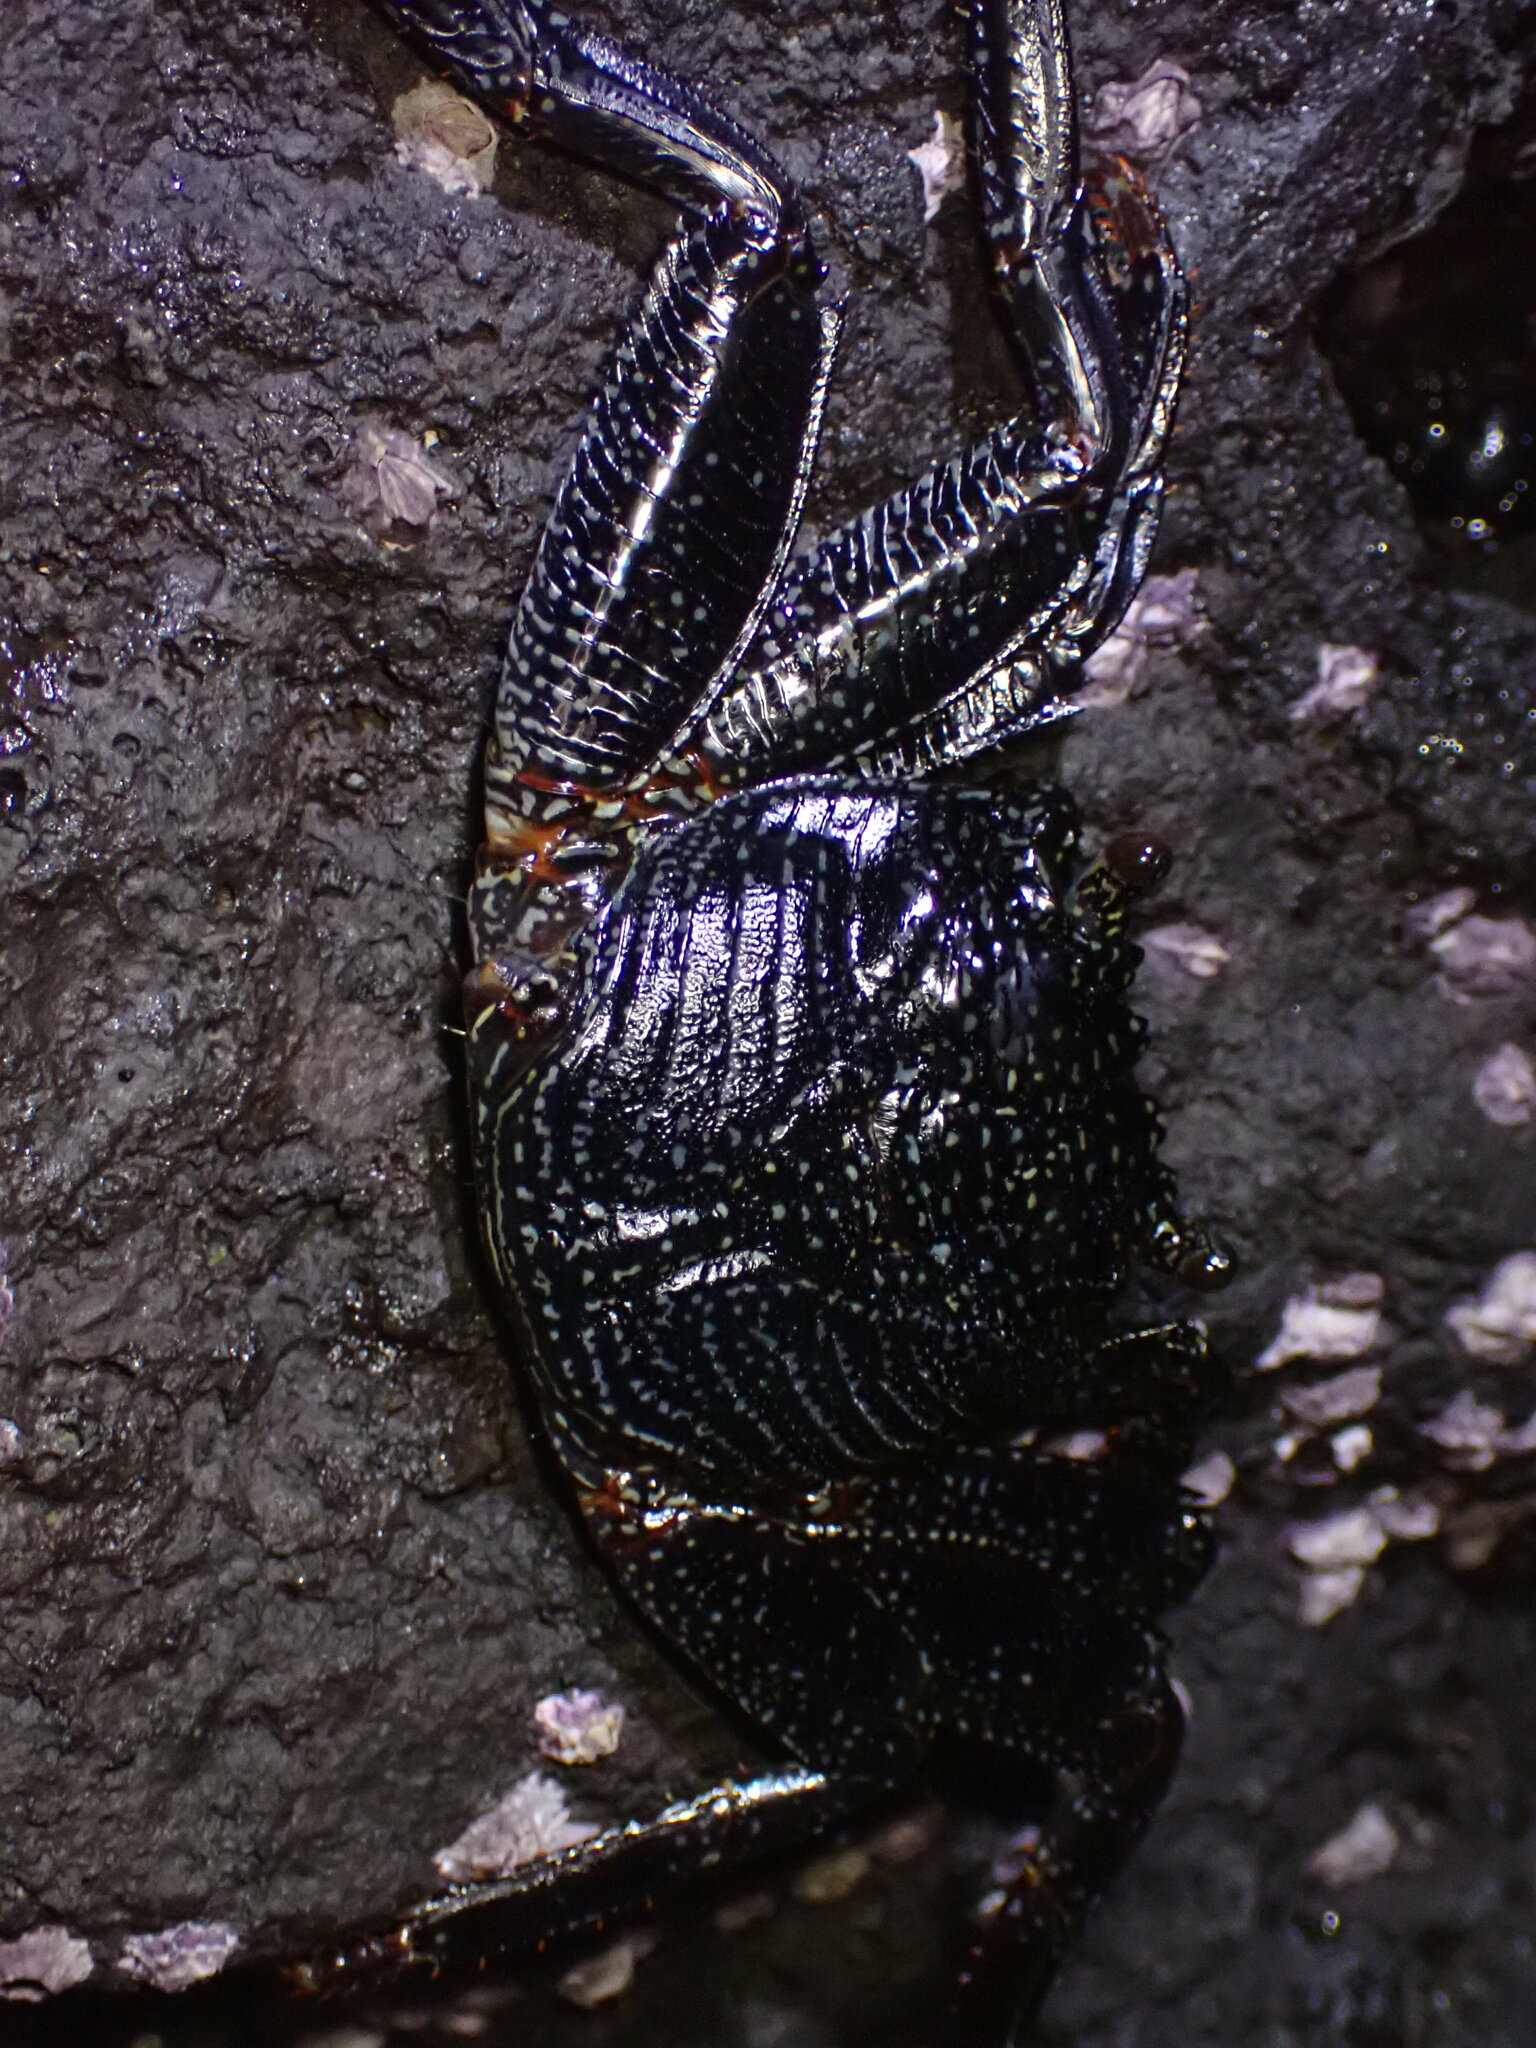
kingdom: Animalia
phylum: Arthropoda
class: Malacostraca
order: Decapoda
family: Grapsidae
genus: Grapsus
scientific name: Grapsus tenuicrustatus
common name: Natal lightfoot crab
